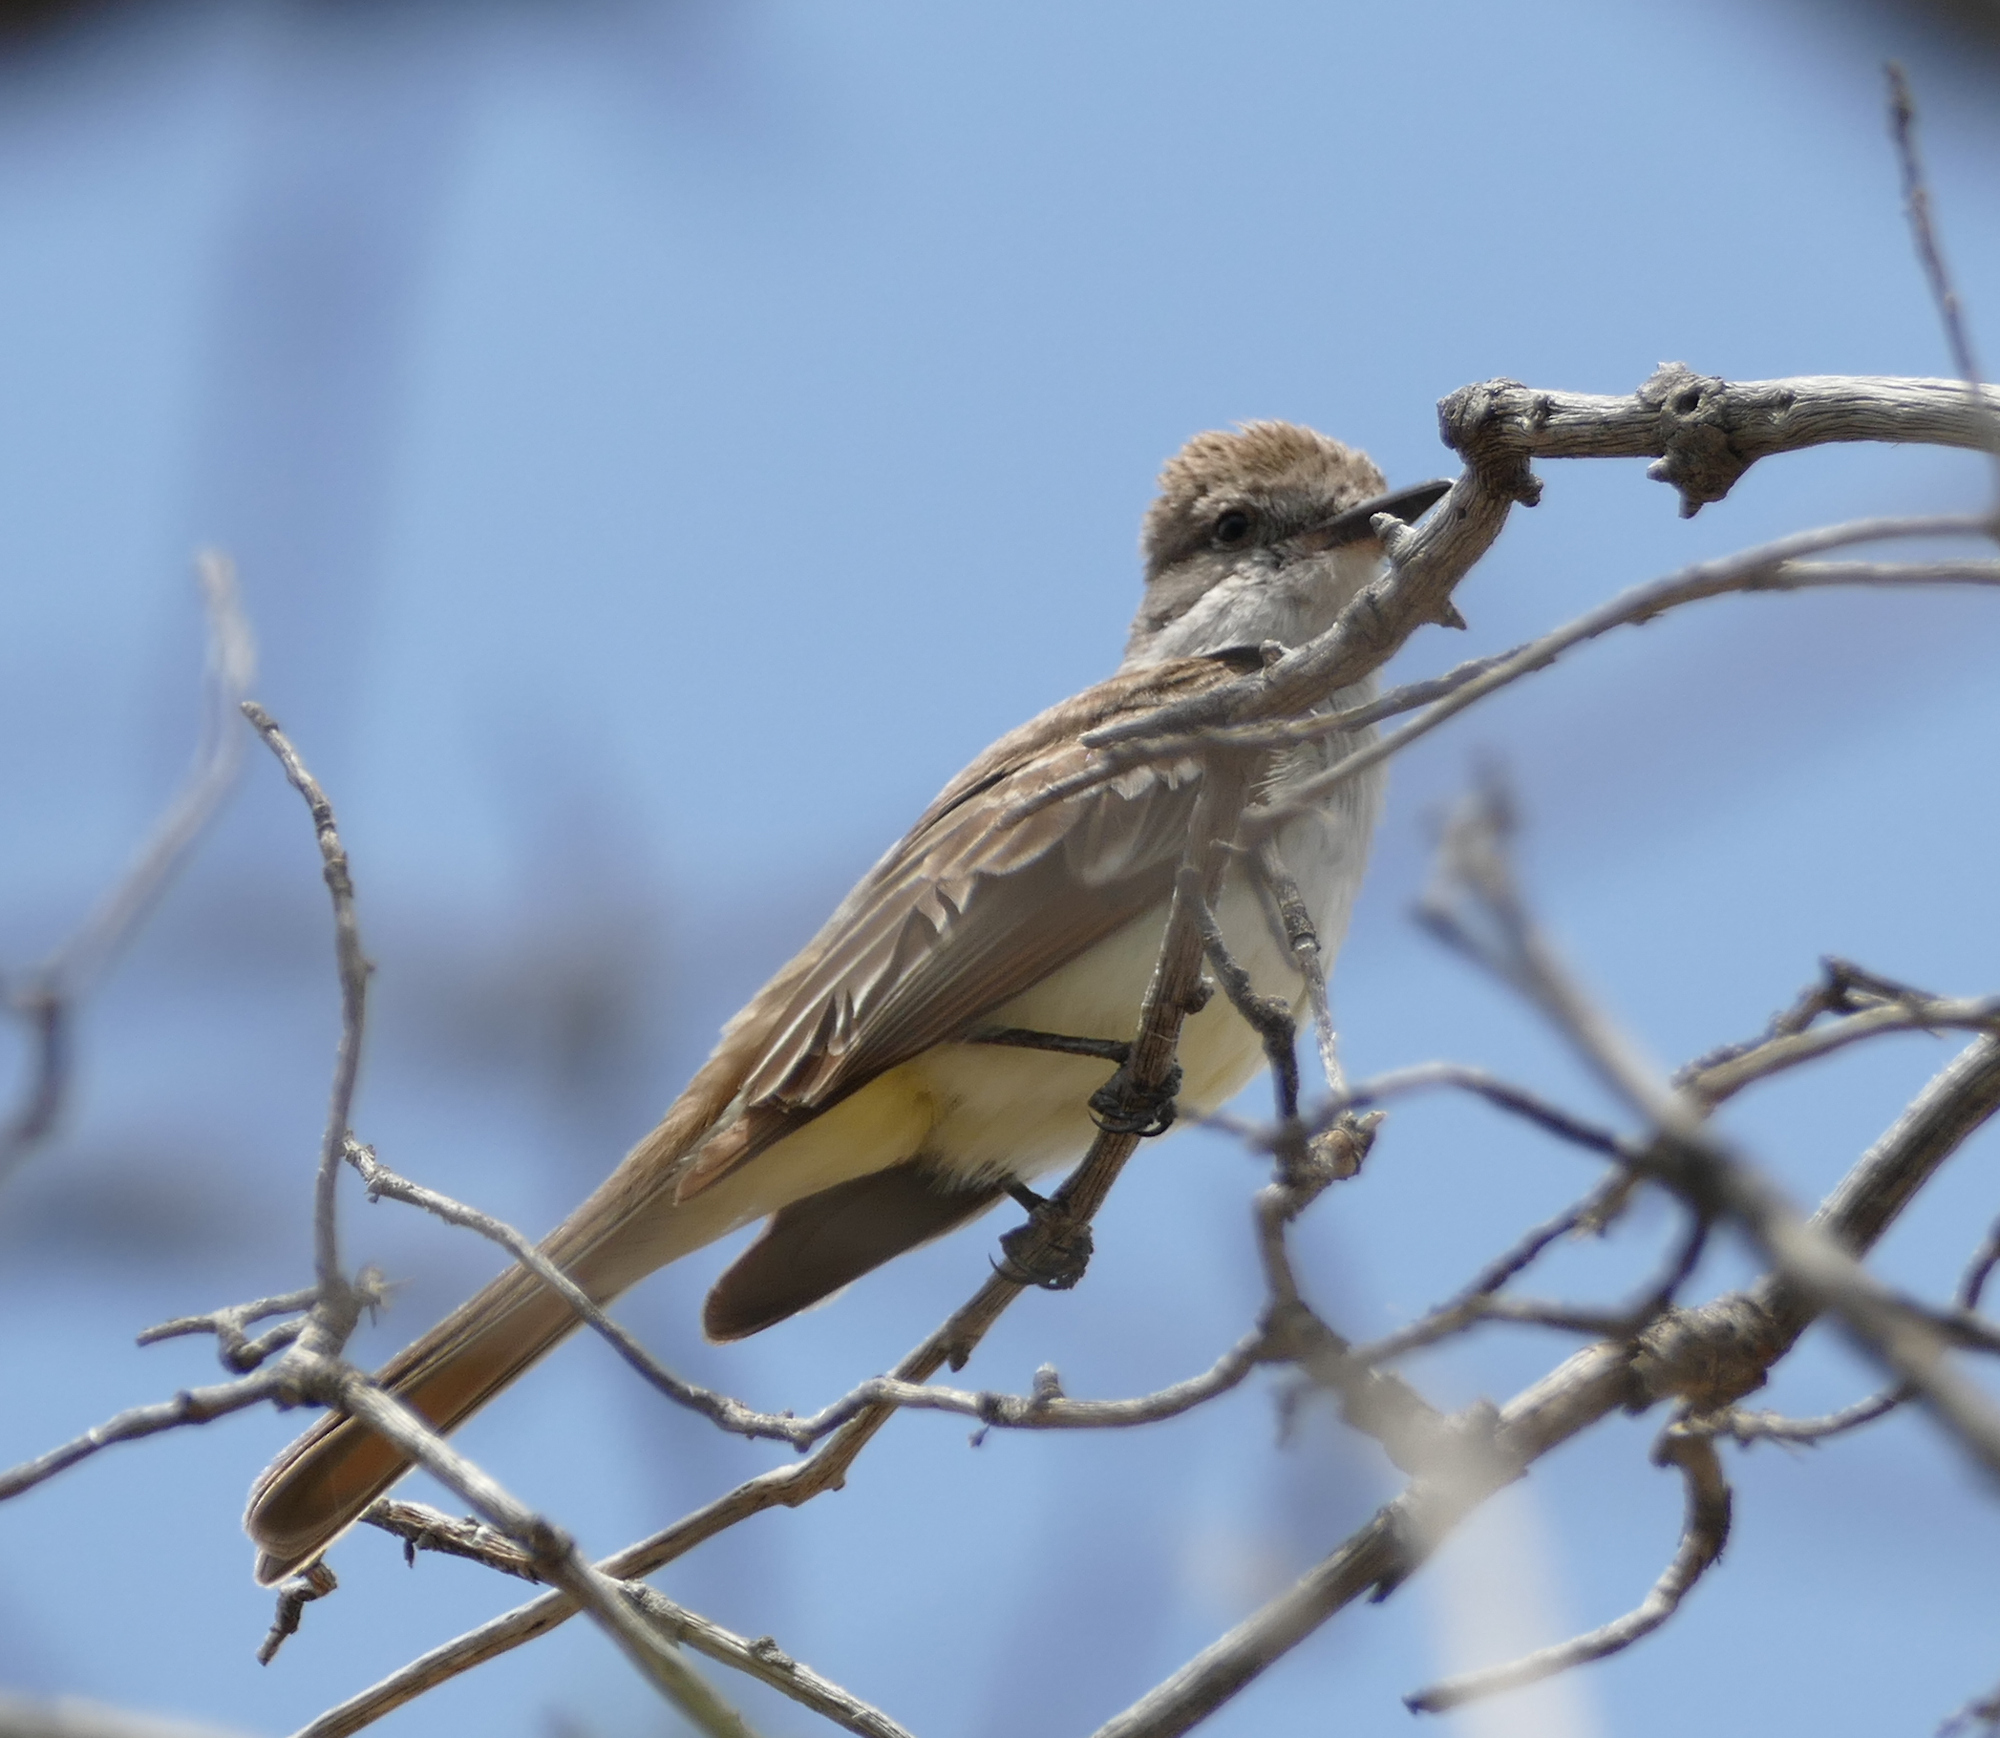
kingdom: Animalia
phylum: Chordata
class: Aves
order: Passeriformes
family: Tyrannidae
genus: Myiarchus
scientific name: Myiarchus cinerascens
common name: Ash-throated flycatcher
